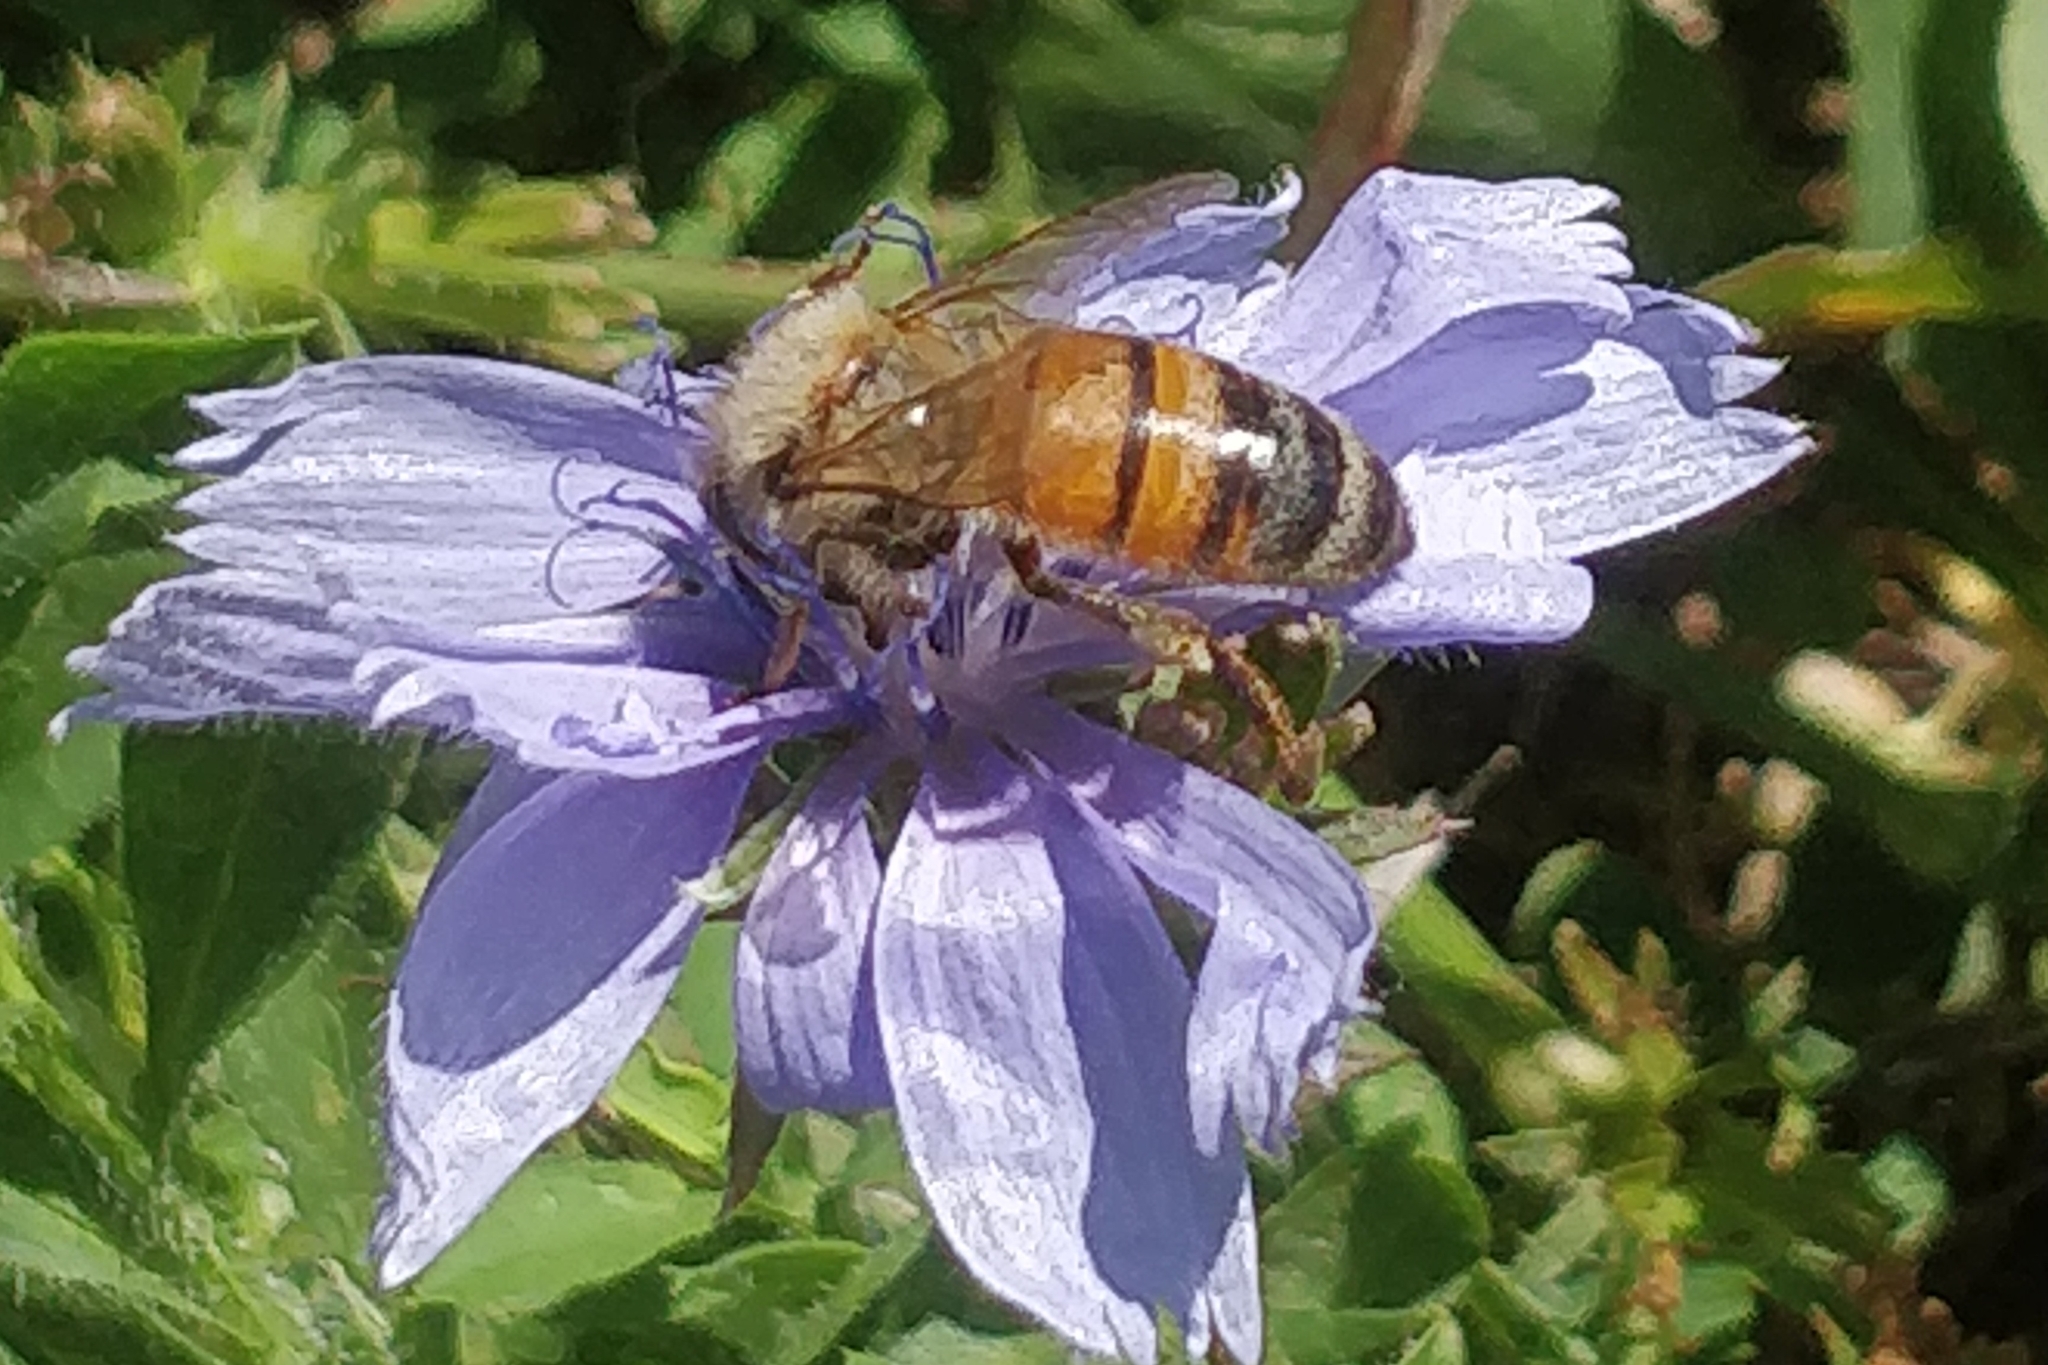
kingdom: Animalia
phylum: Arthropoda
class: Insecta
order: Hymenoptera
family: Apidae
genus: Apis
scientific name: Apis mellifera
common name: Honey bee
